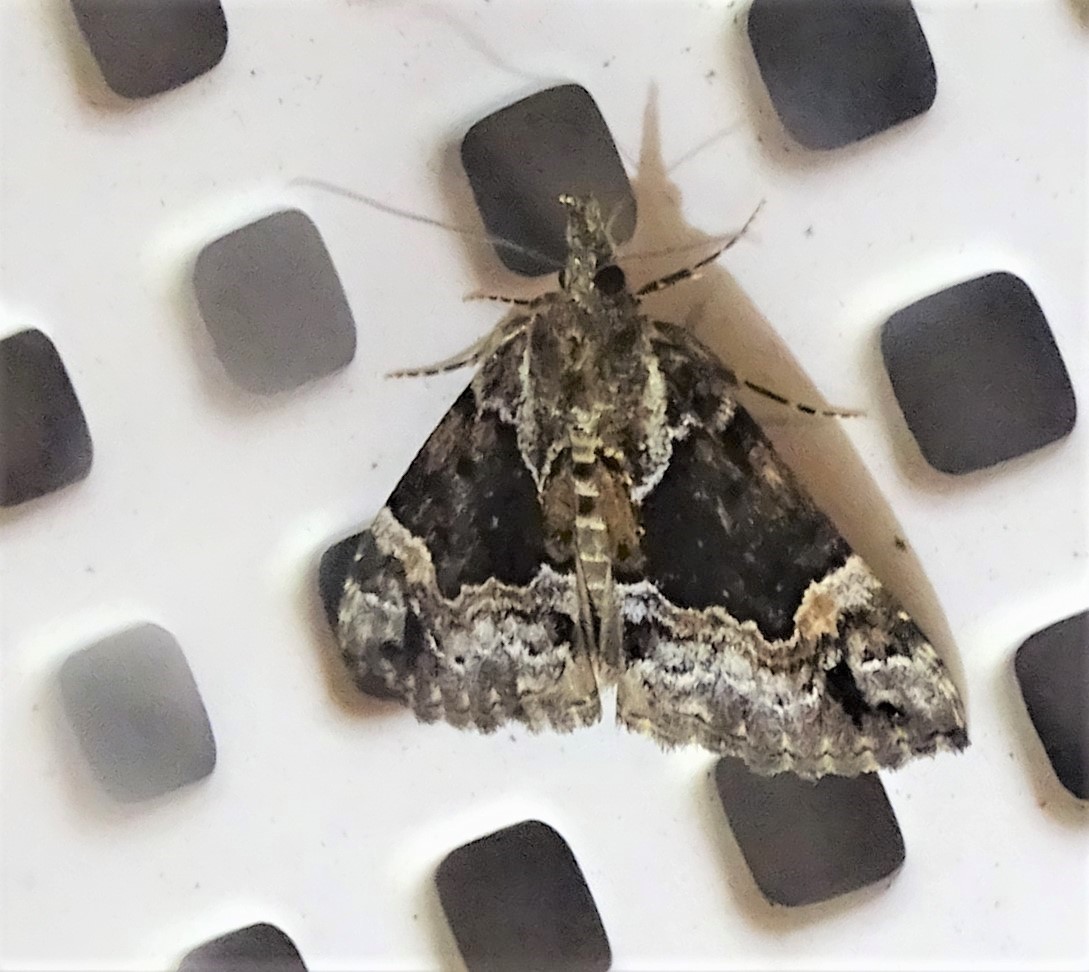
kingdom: Animalia
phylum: Arthropoda
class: Insecta
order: Lepidoptera
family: Erebidae
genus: Hypena
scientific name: Hypena palparia
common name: Mottled bomolocha moth
